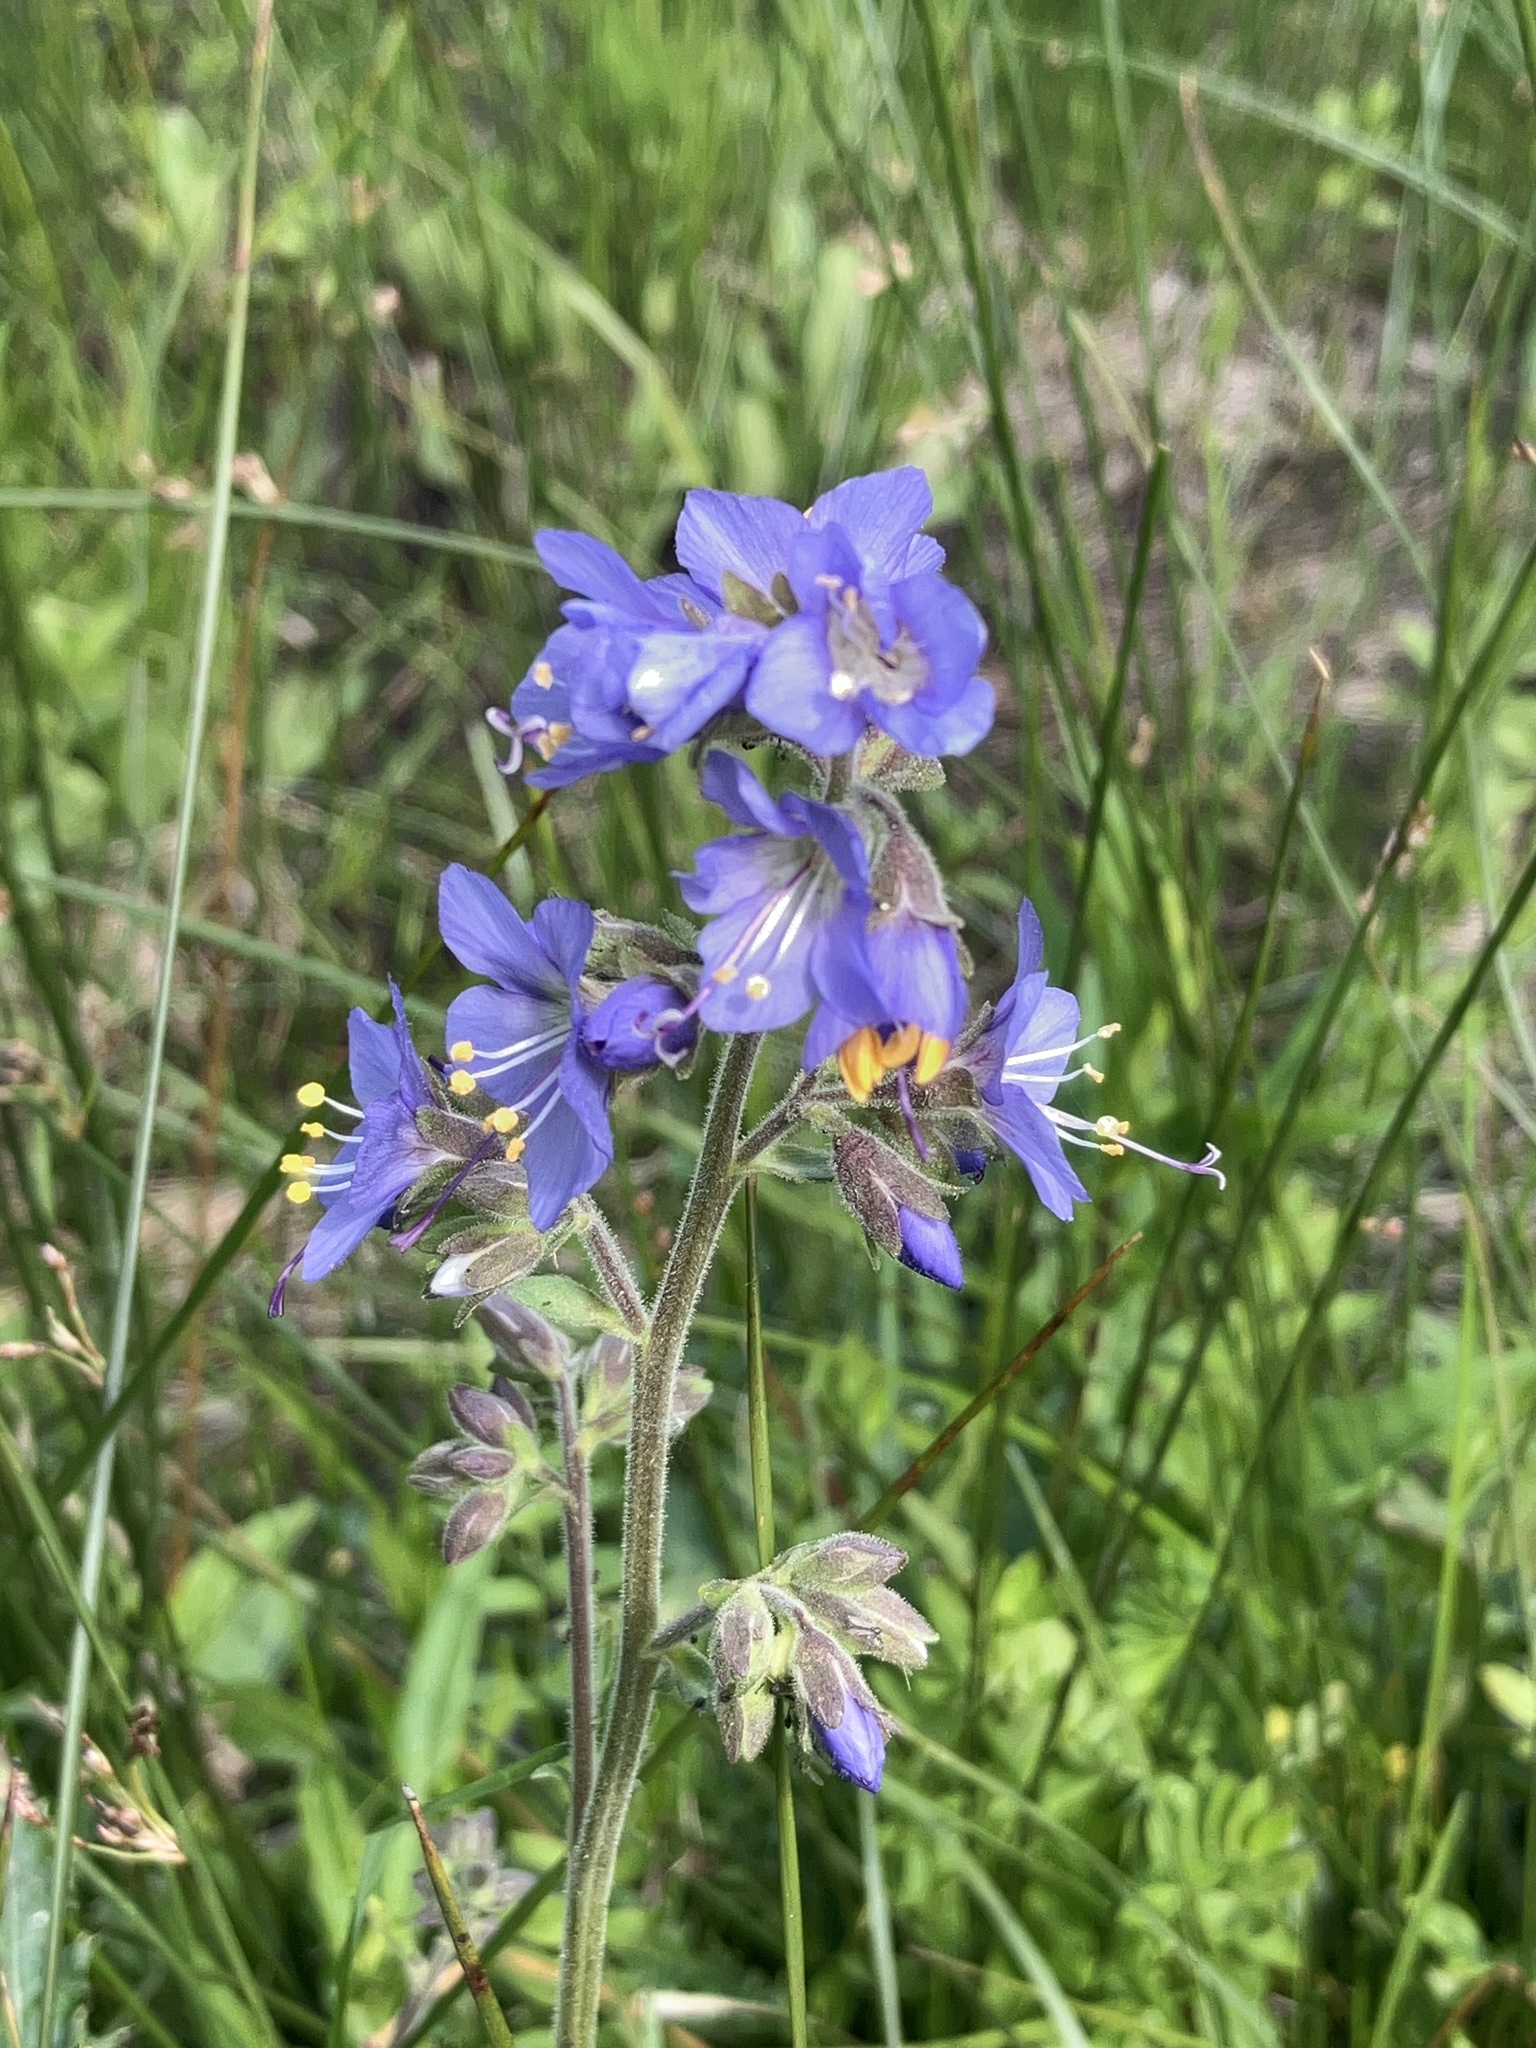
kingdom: Plantae
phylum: Tracheophyta
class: Magnoliopsida
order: Ericales
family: Polemoniaceae
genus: Polemonium
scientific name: Polemonium occidentale
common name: Western jacob's-ladder
